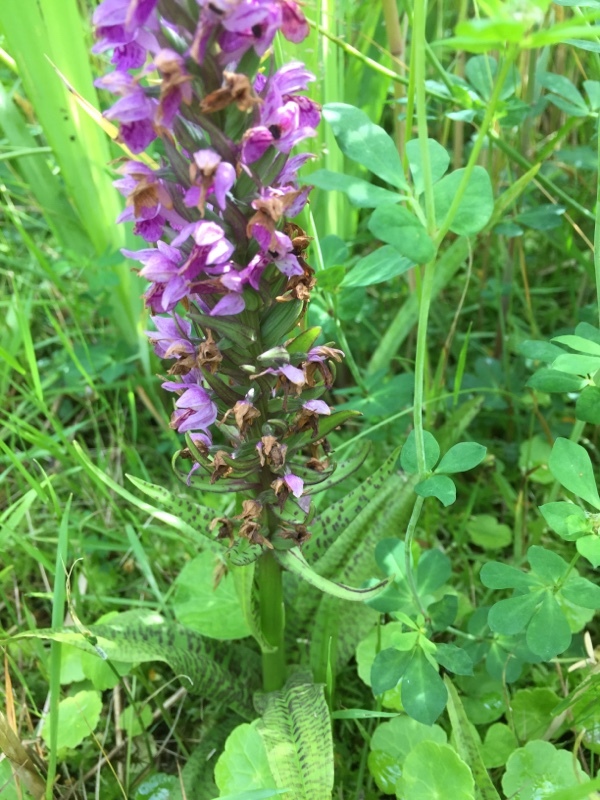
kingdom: Plantae
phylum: Tracheophyta
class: Liliopsida
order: Asparagales
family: Orchidaceae
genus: Dactylorhiza
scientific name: Dactylorhiza majalis
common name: Marsh orchid
